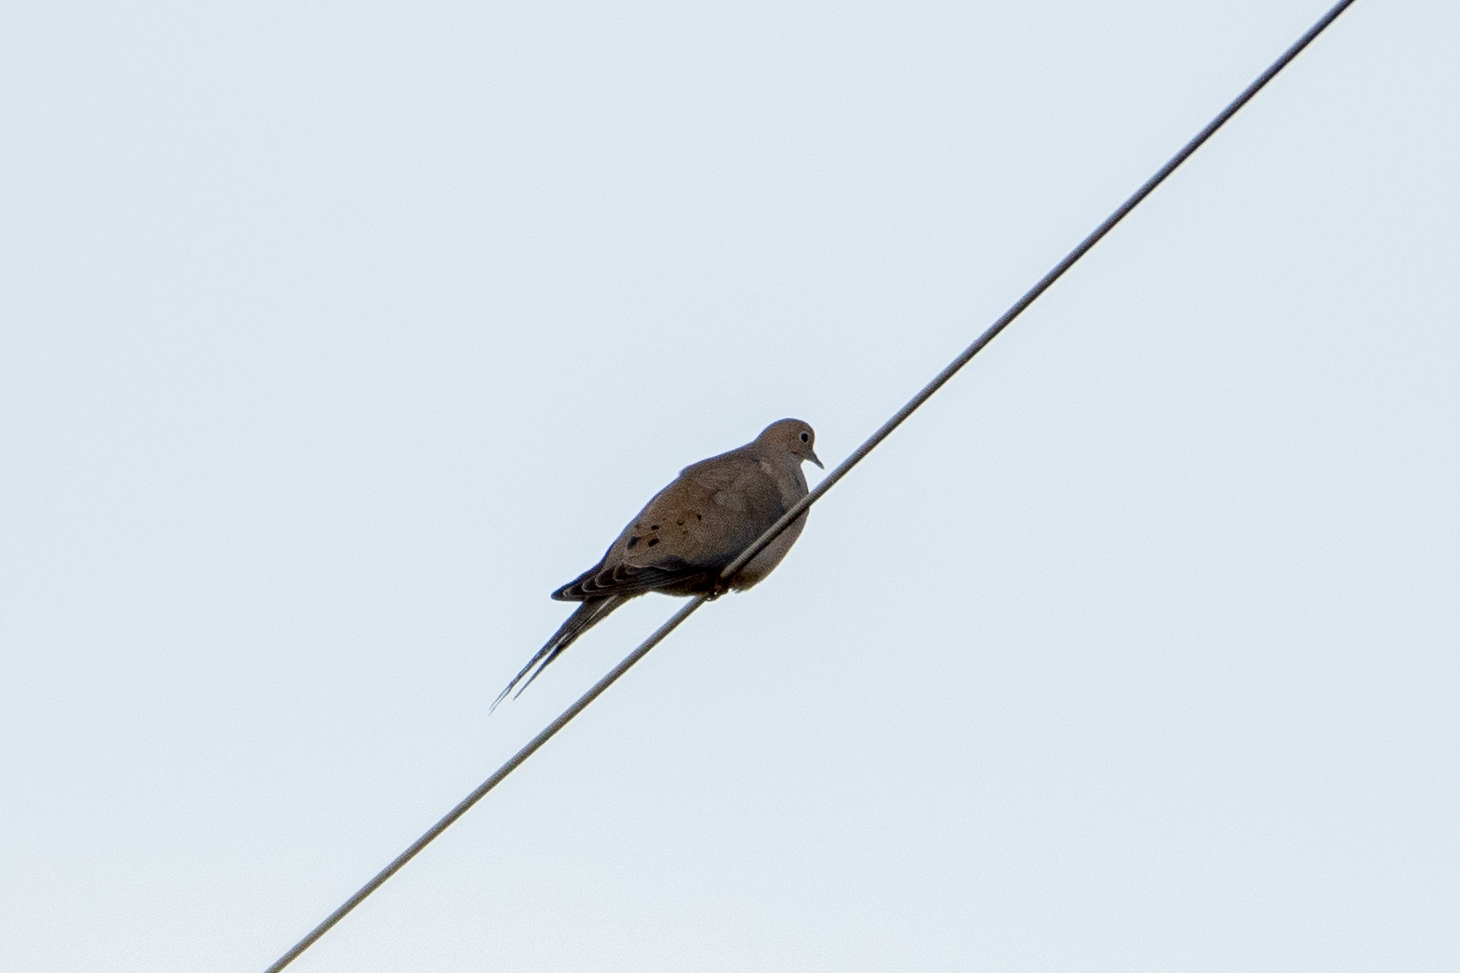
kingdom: Animalia
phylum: Chordata
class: Aves
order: Columbiformes
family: Columbidae
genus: Zenaida
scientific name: Zenaida macroura
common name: Mourning dove
